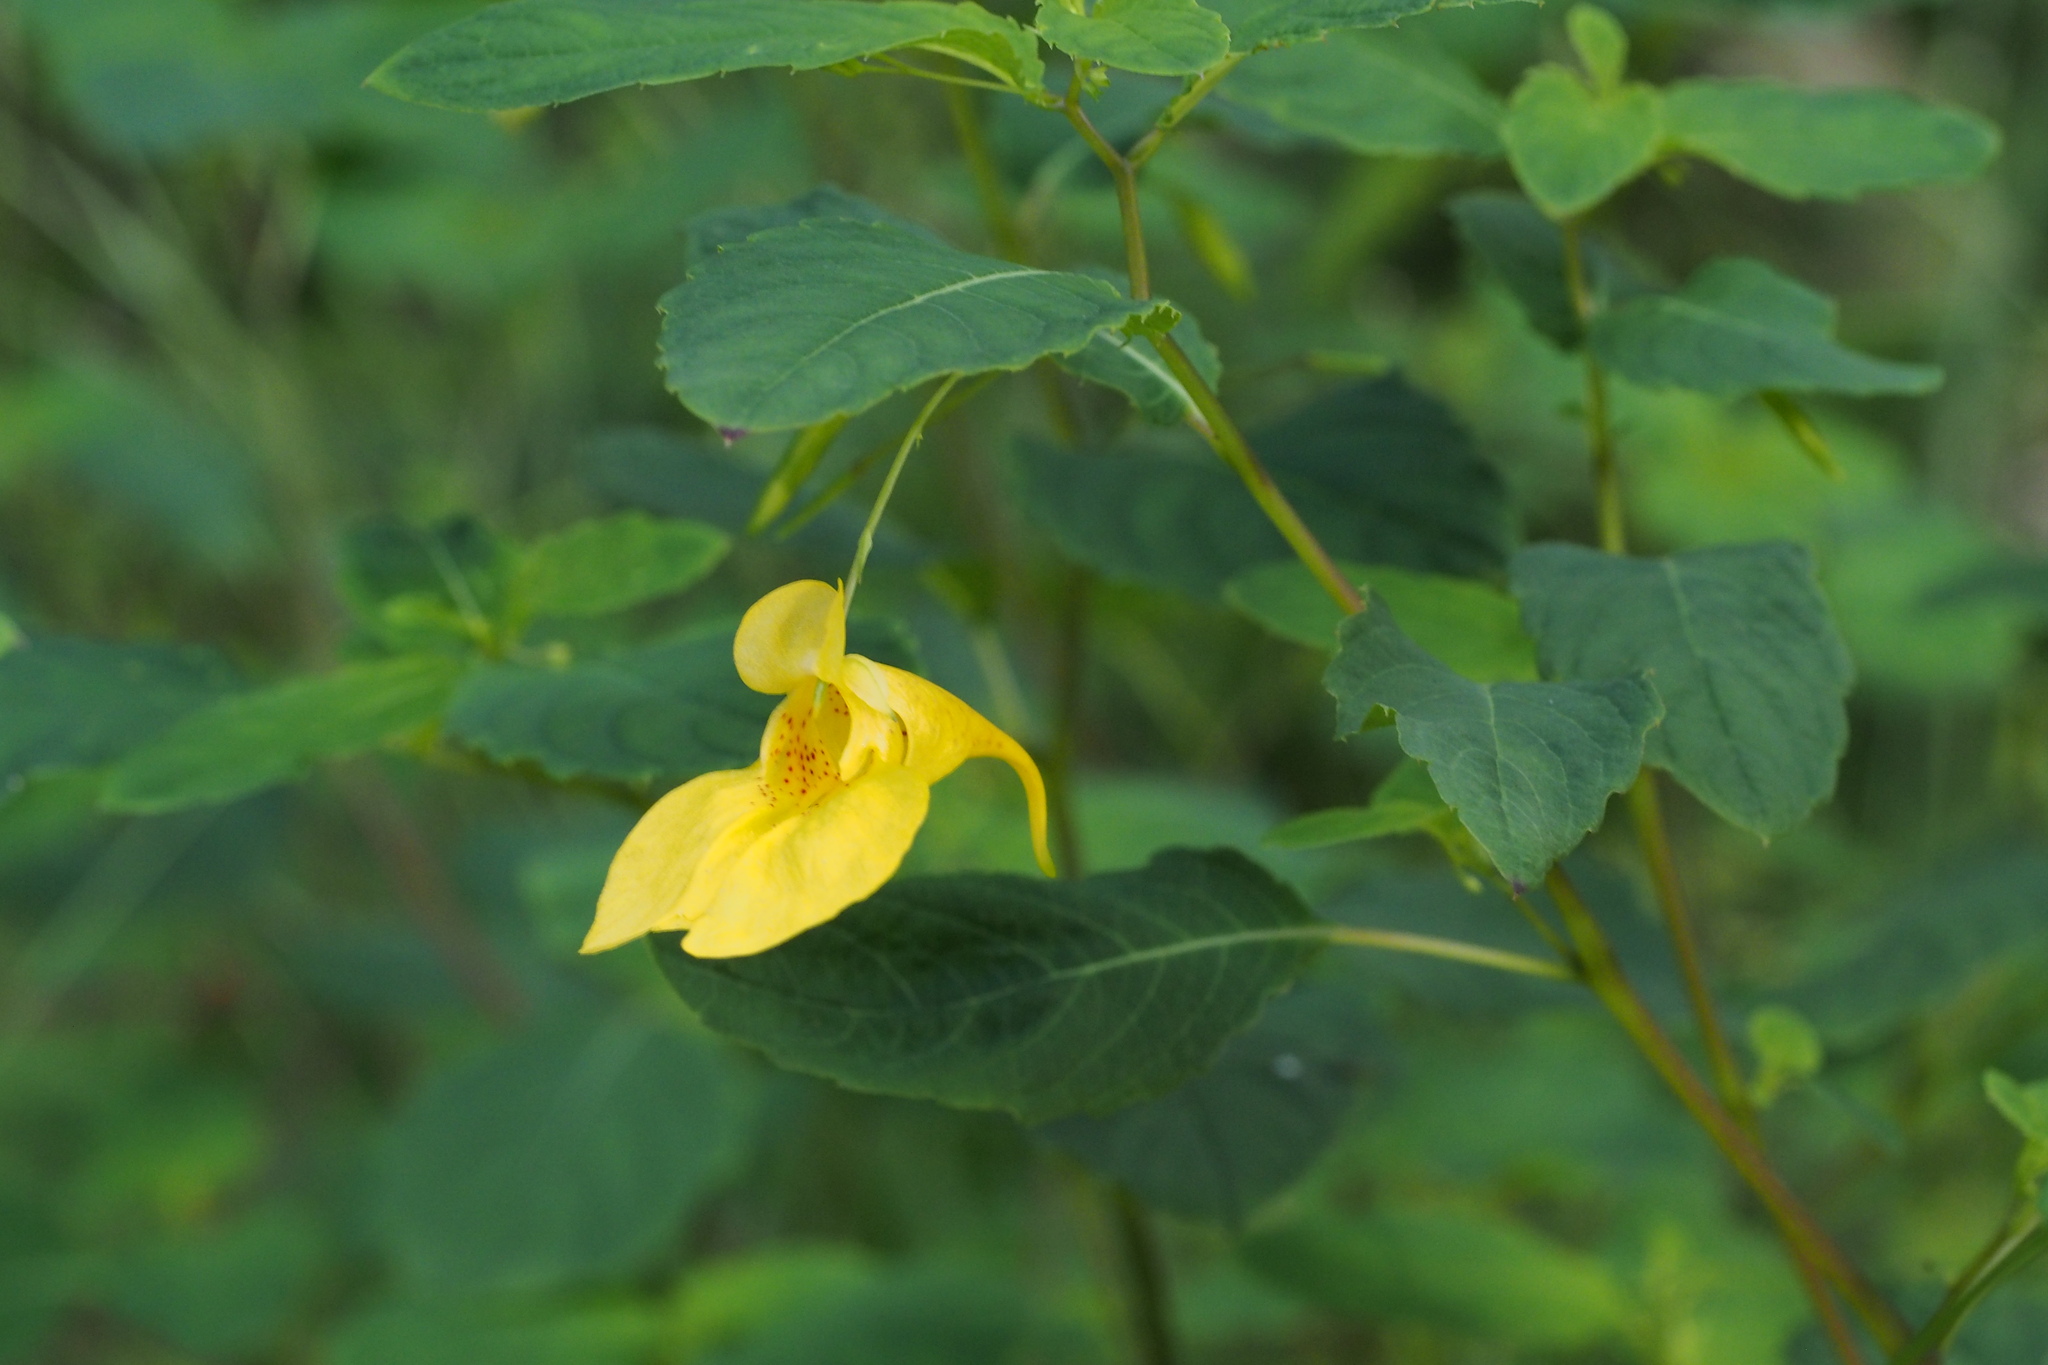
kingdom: Plantae
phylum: Tracheophyta
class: Magnoliopsida
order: Ericales
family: Balsaminaceae
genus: Impatiens
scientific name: Impatiens noli-tangere
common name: Touch-me-not balsam
